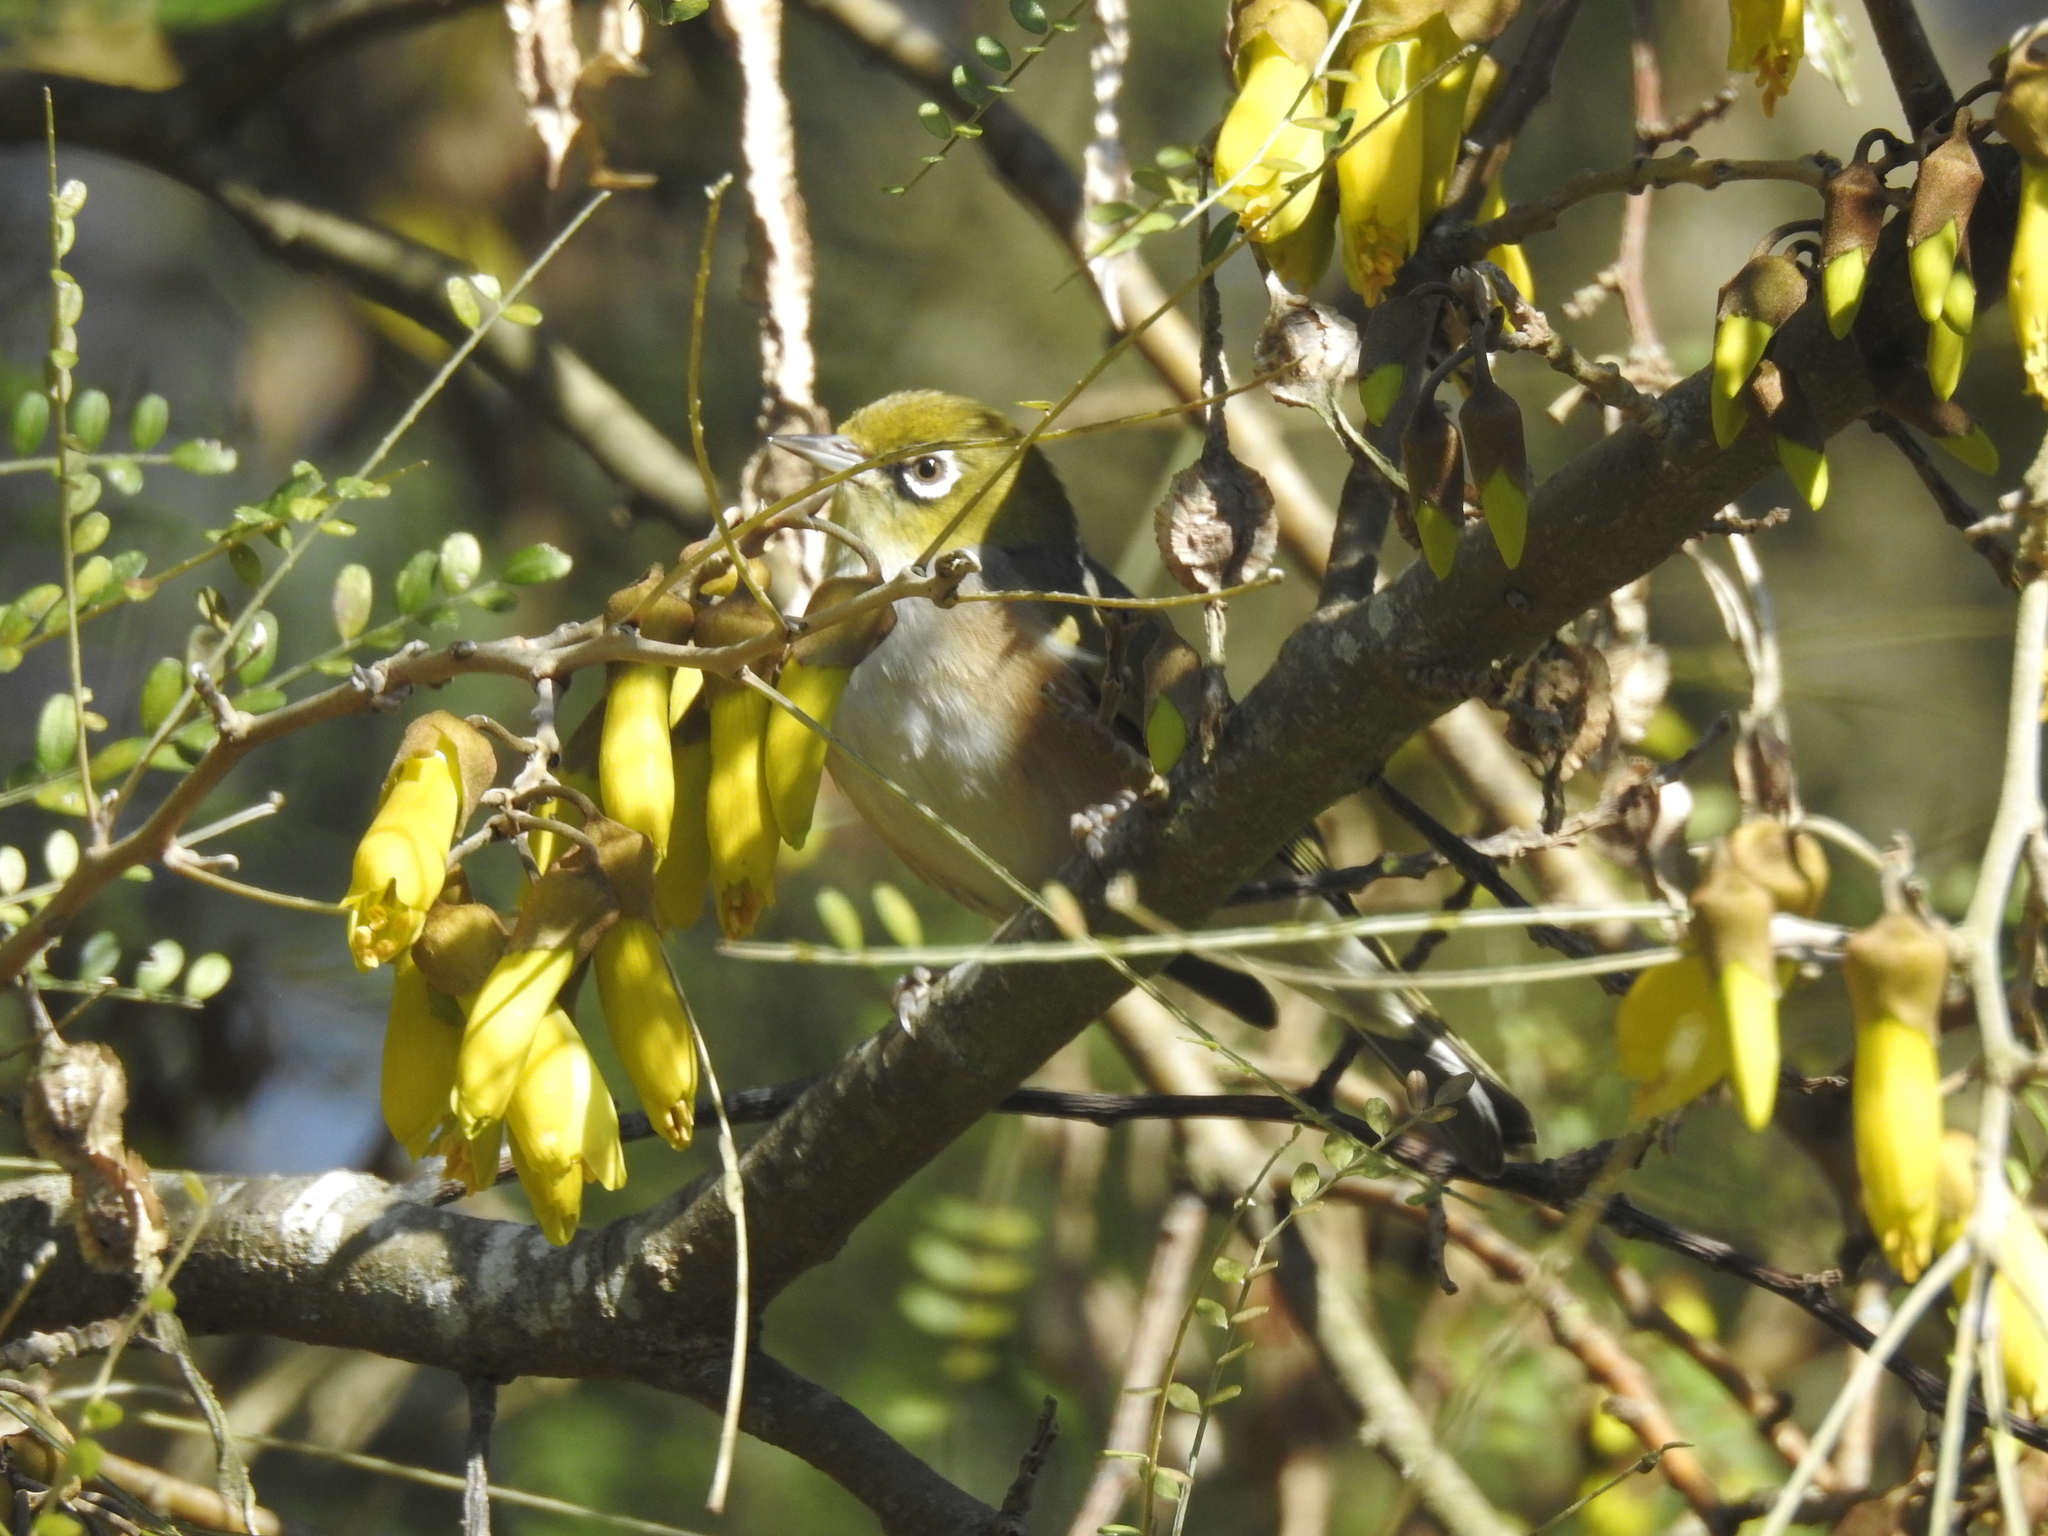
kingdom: Animalia
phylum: Chordata
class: Aves
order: Passeriformes
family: Zosteropidae
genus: Zosterops
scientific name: Zosterops lateralis
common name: Silvereye
